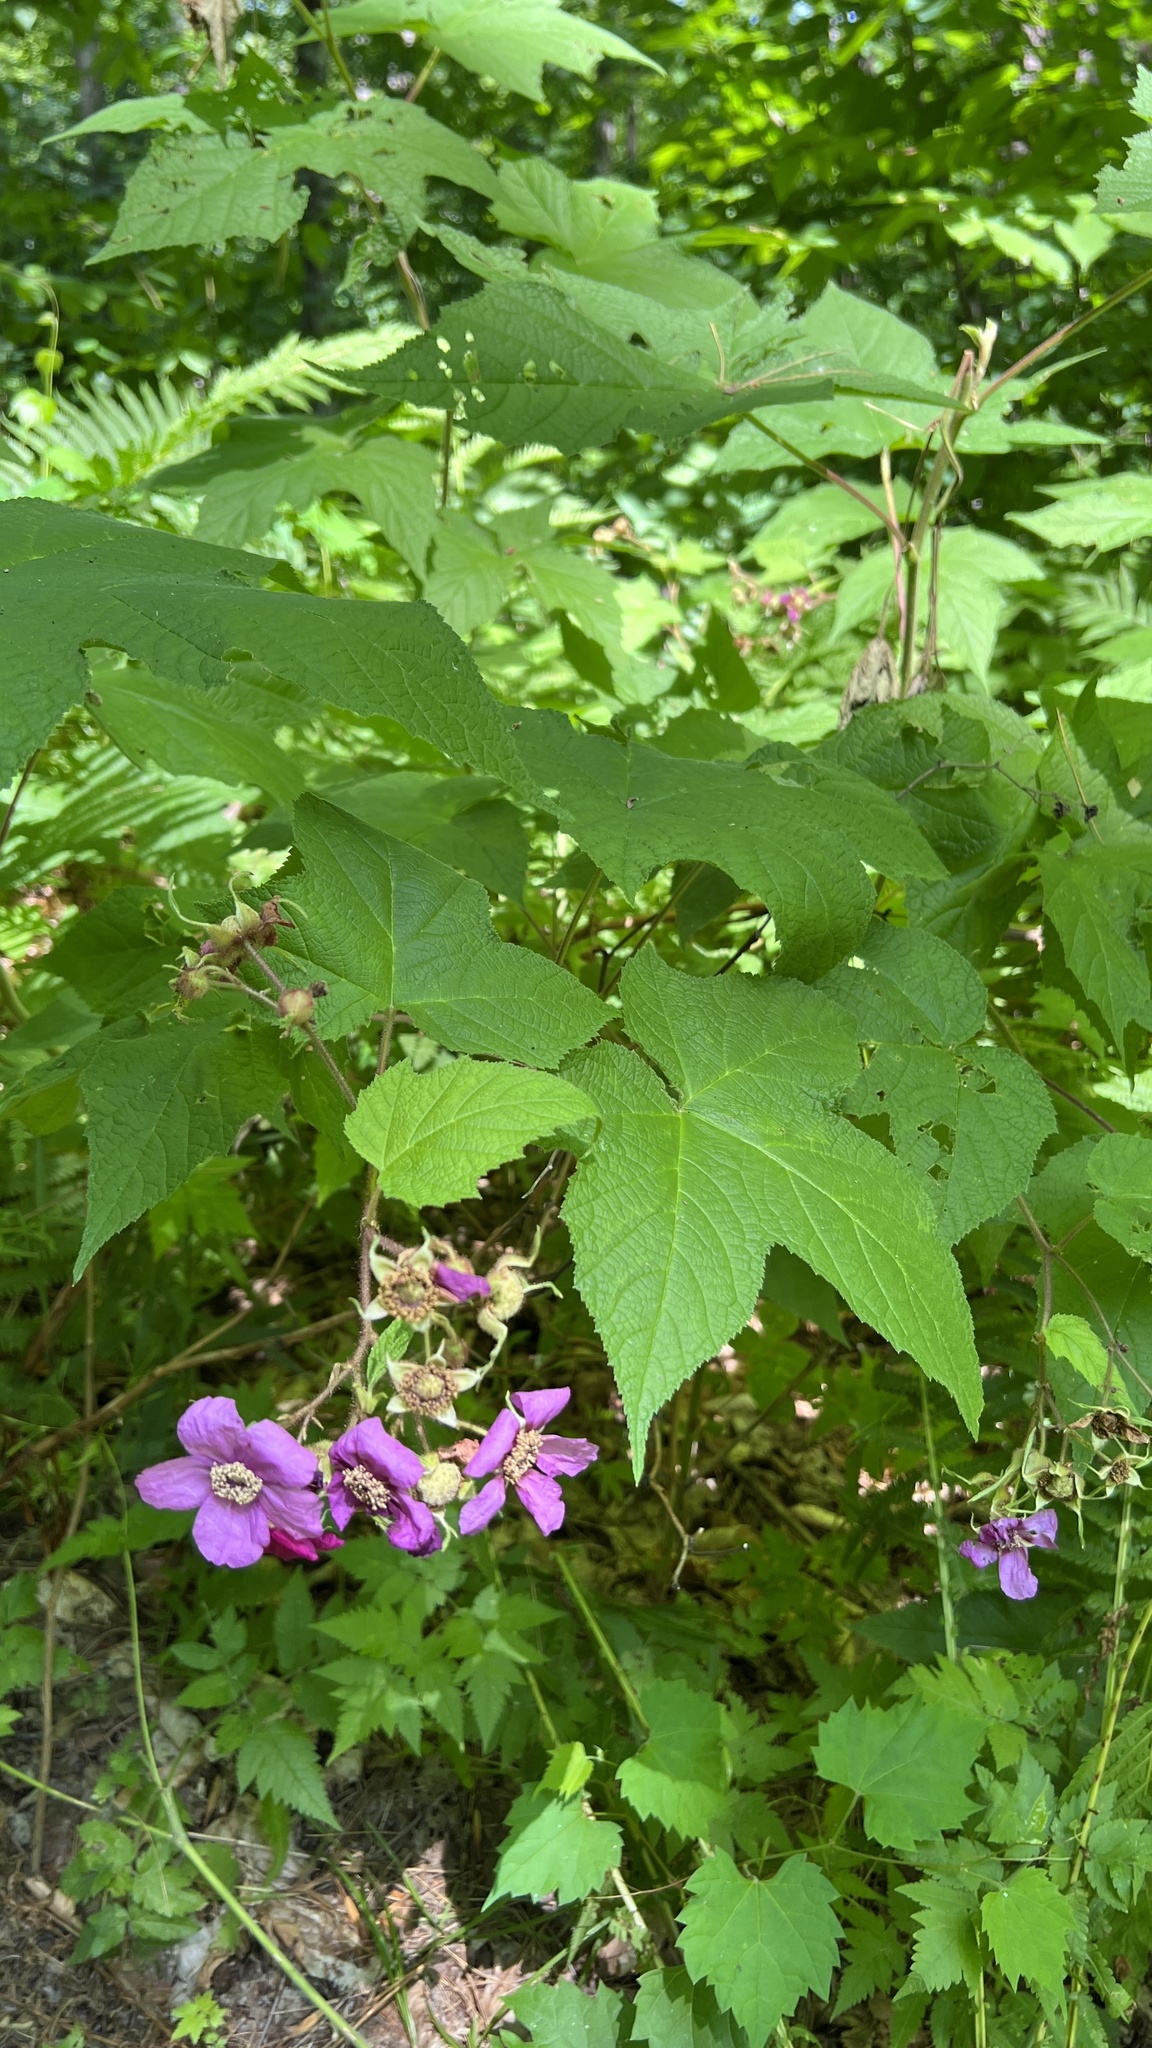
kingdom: Plantae
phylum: Tracheophyta
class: Magnoliopsida
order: Rosales
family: Rosaceae
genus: Rubus
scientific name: Rubus odoratus
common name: Purple-flowered raspberry
